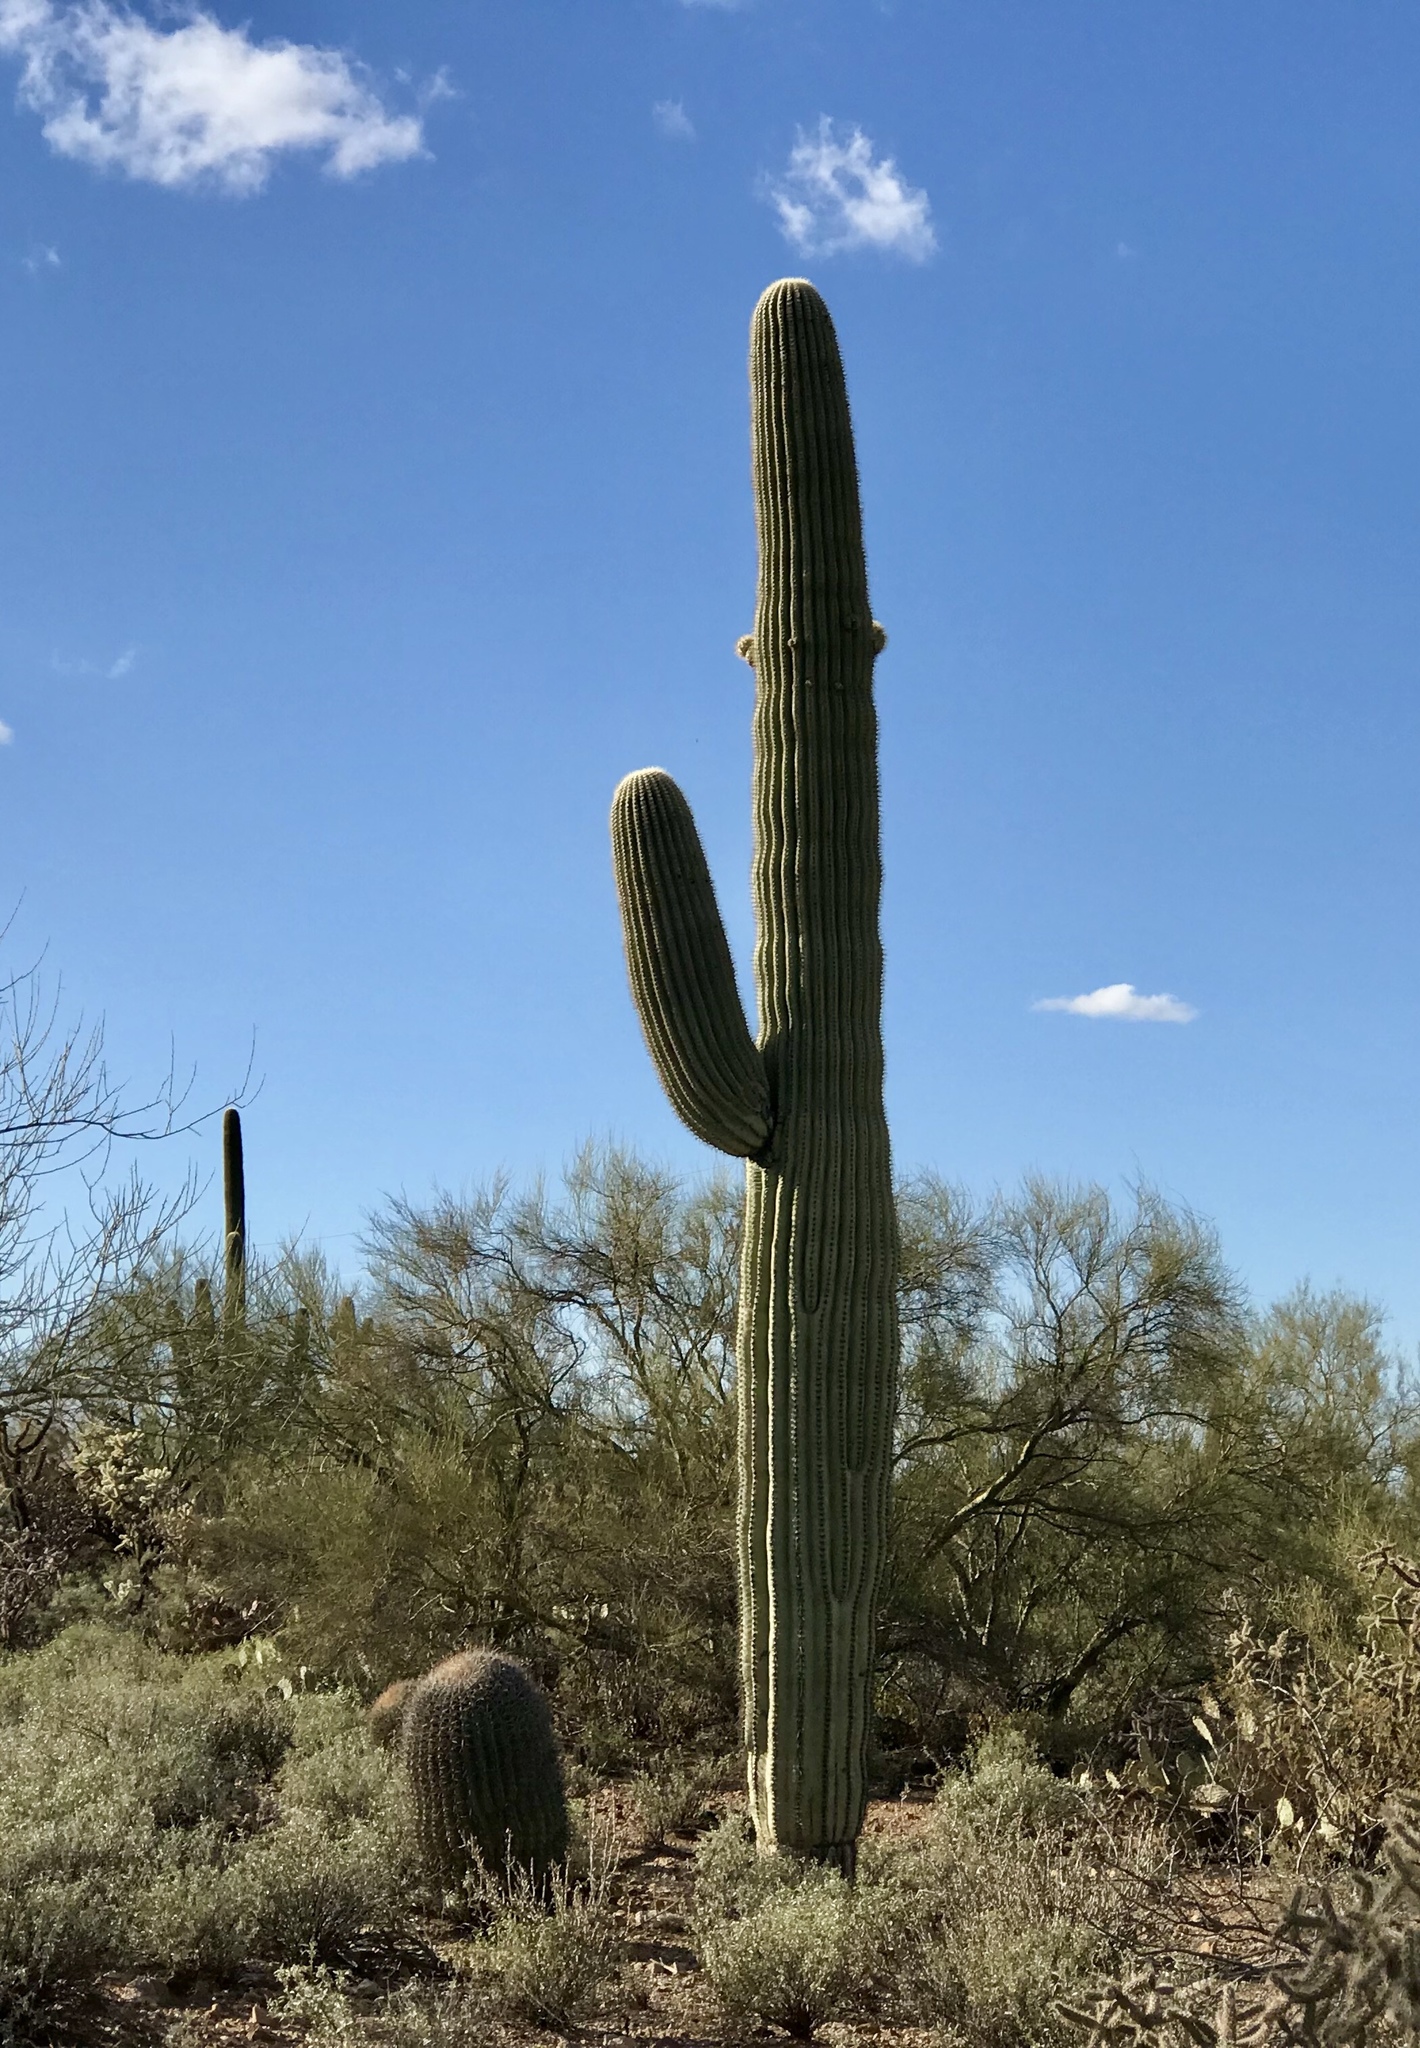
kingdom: Plantae
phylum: Tracheophyta
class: Magnoliopsida
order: Caryophyllales
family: Cactaceae
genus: Carnegiea
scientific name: Carnegiea gigantea
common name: Saguaro
